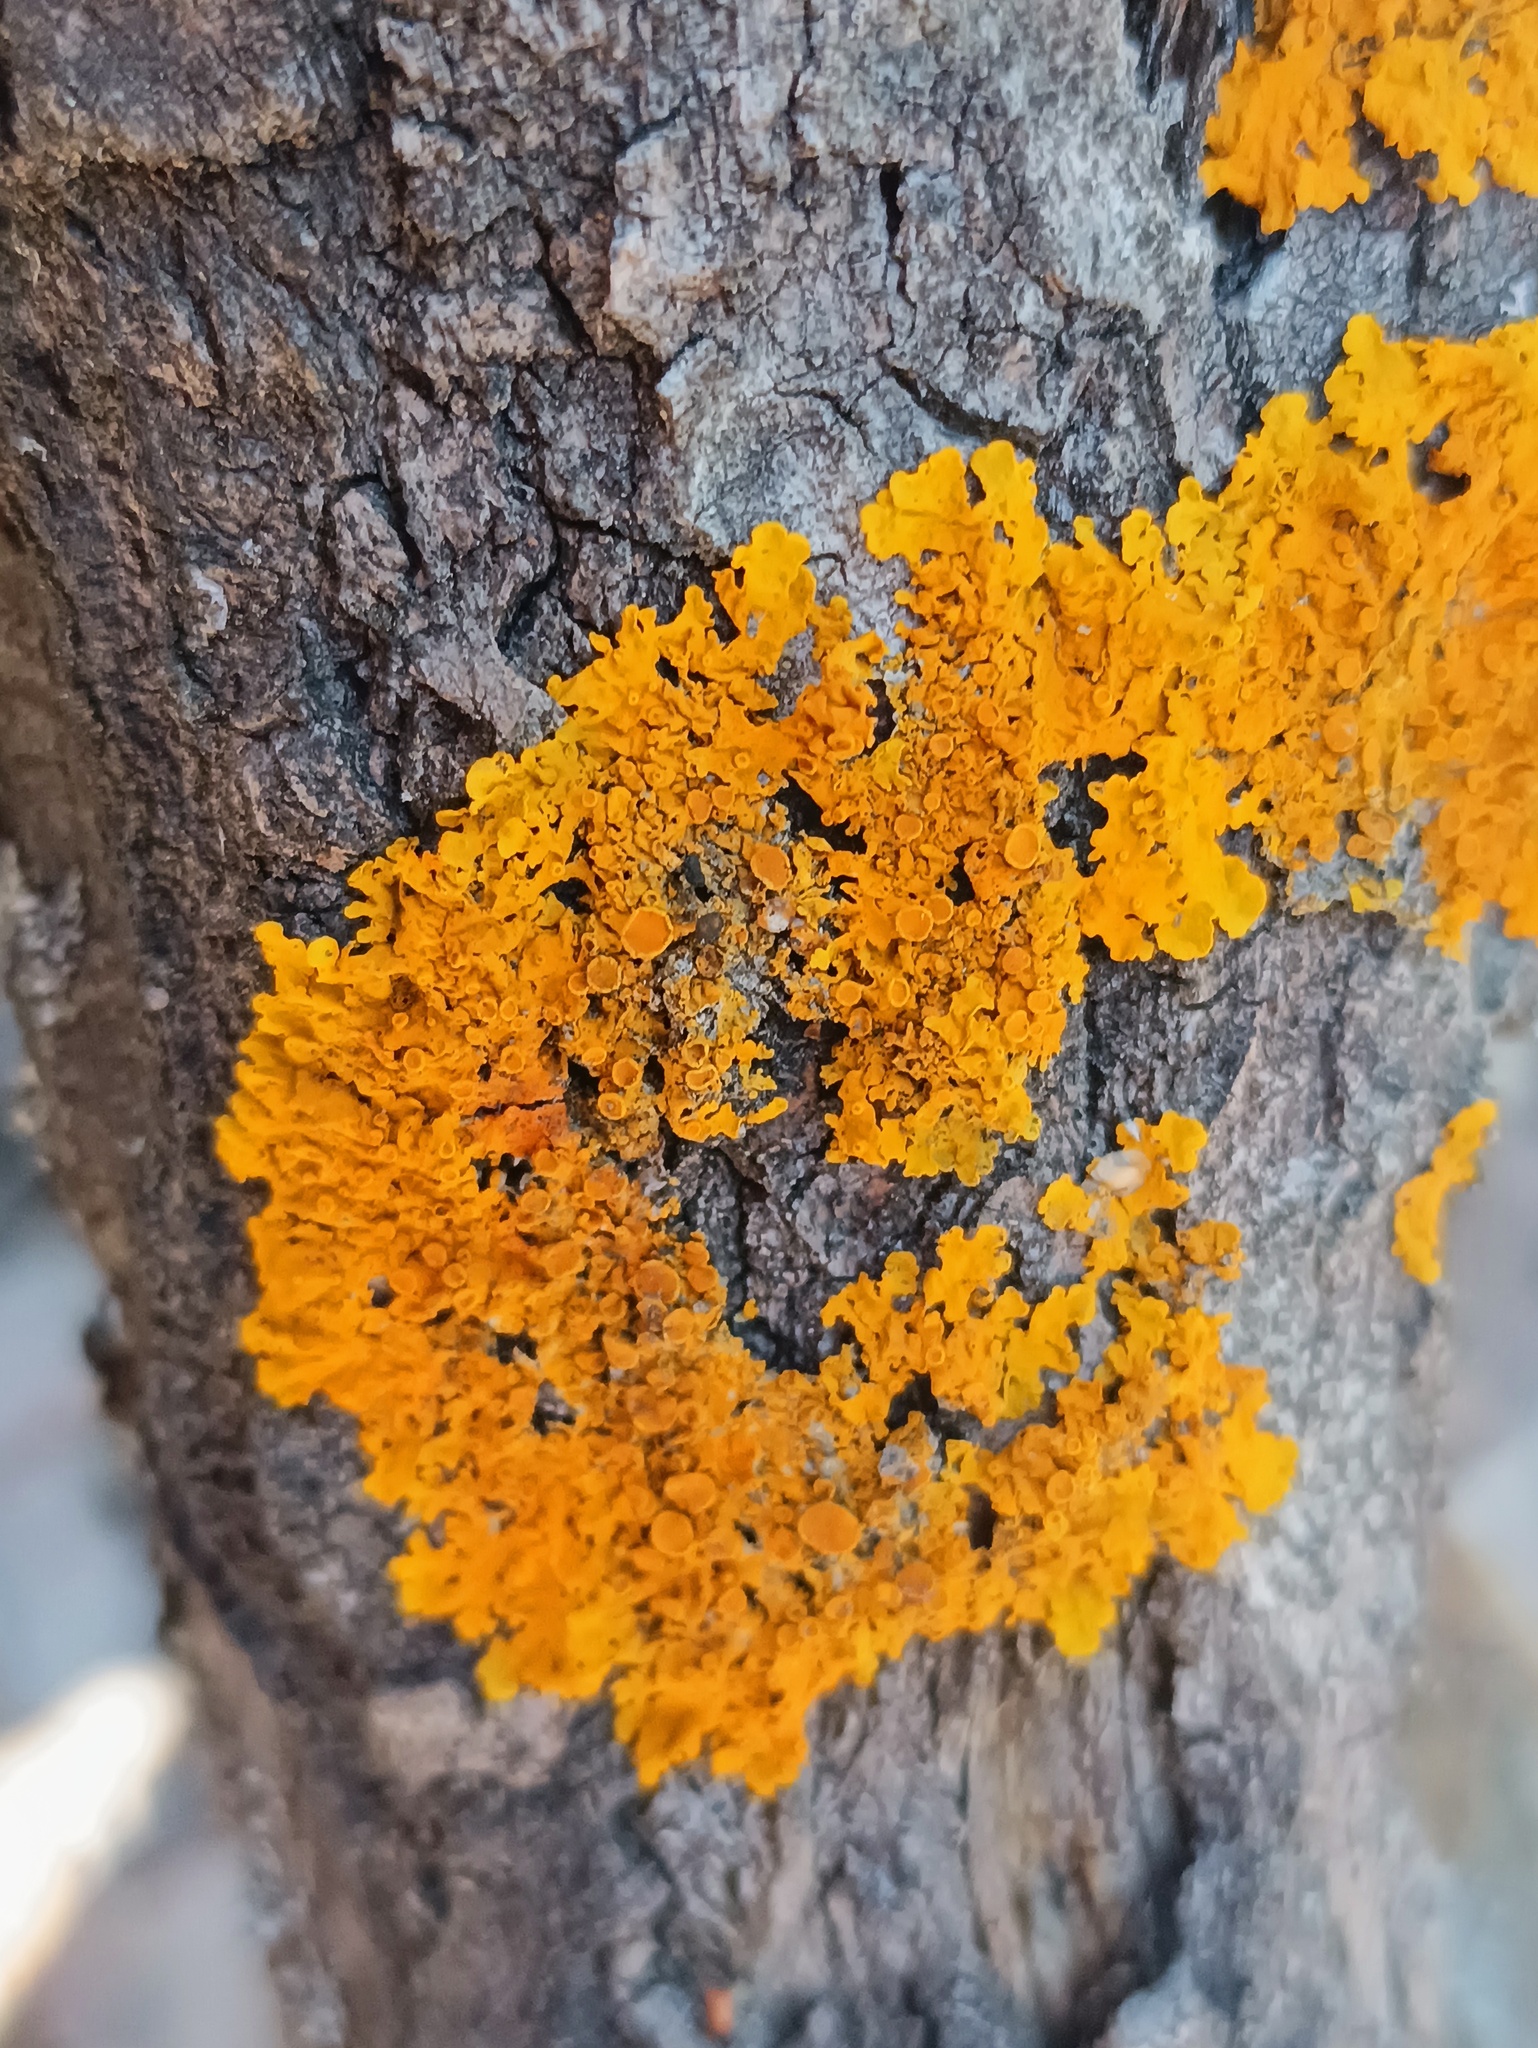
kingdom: Fungi
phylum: Ascomycota
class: Lecanoromycetes
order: Teloschistales
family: Teloschistaceae
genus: Xanthoria
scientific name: Xanthoria parietina
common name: Common orange lichen
